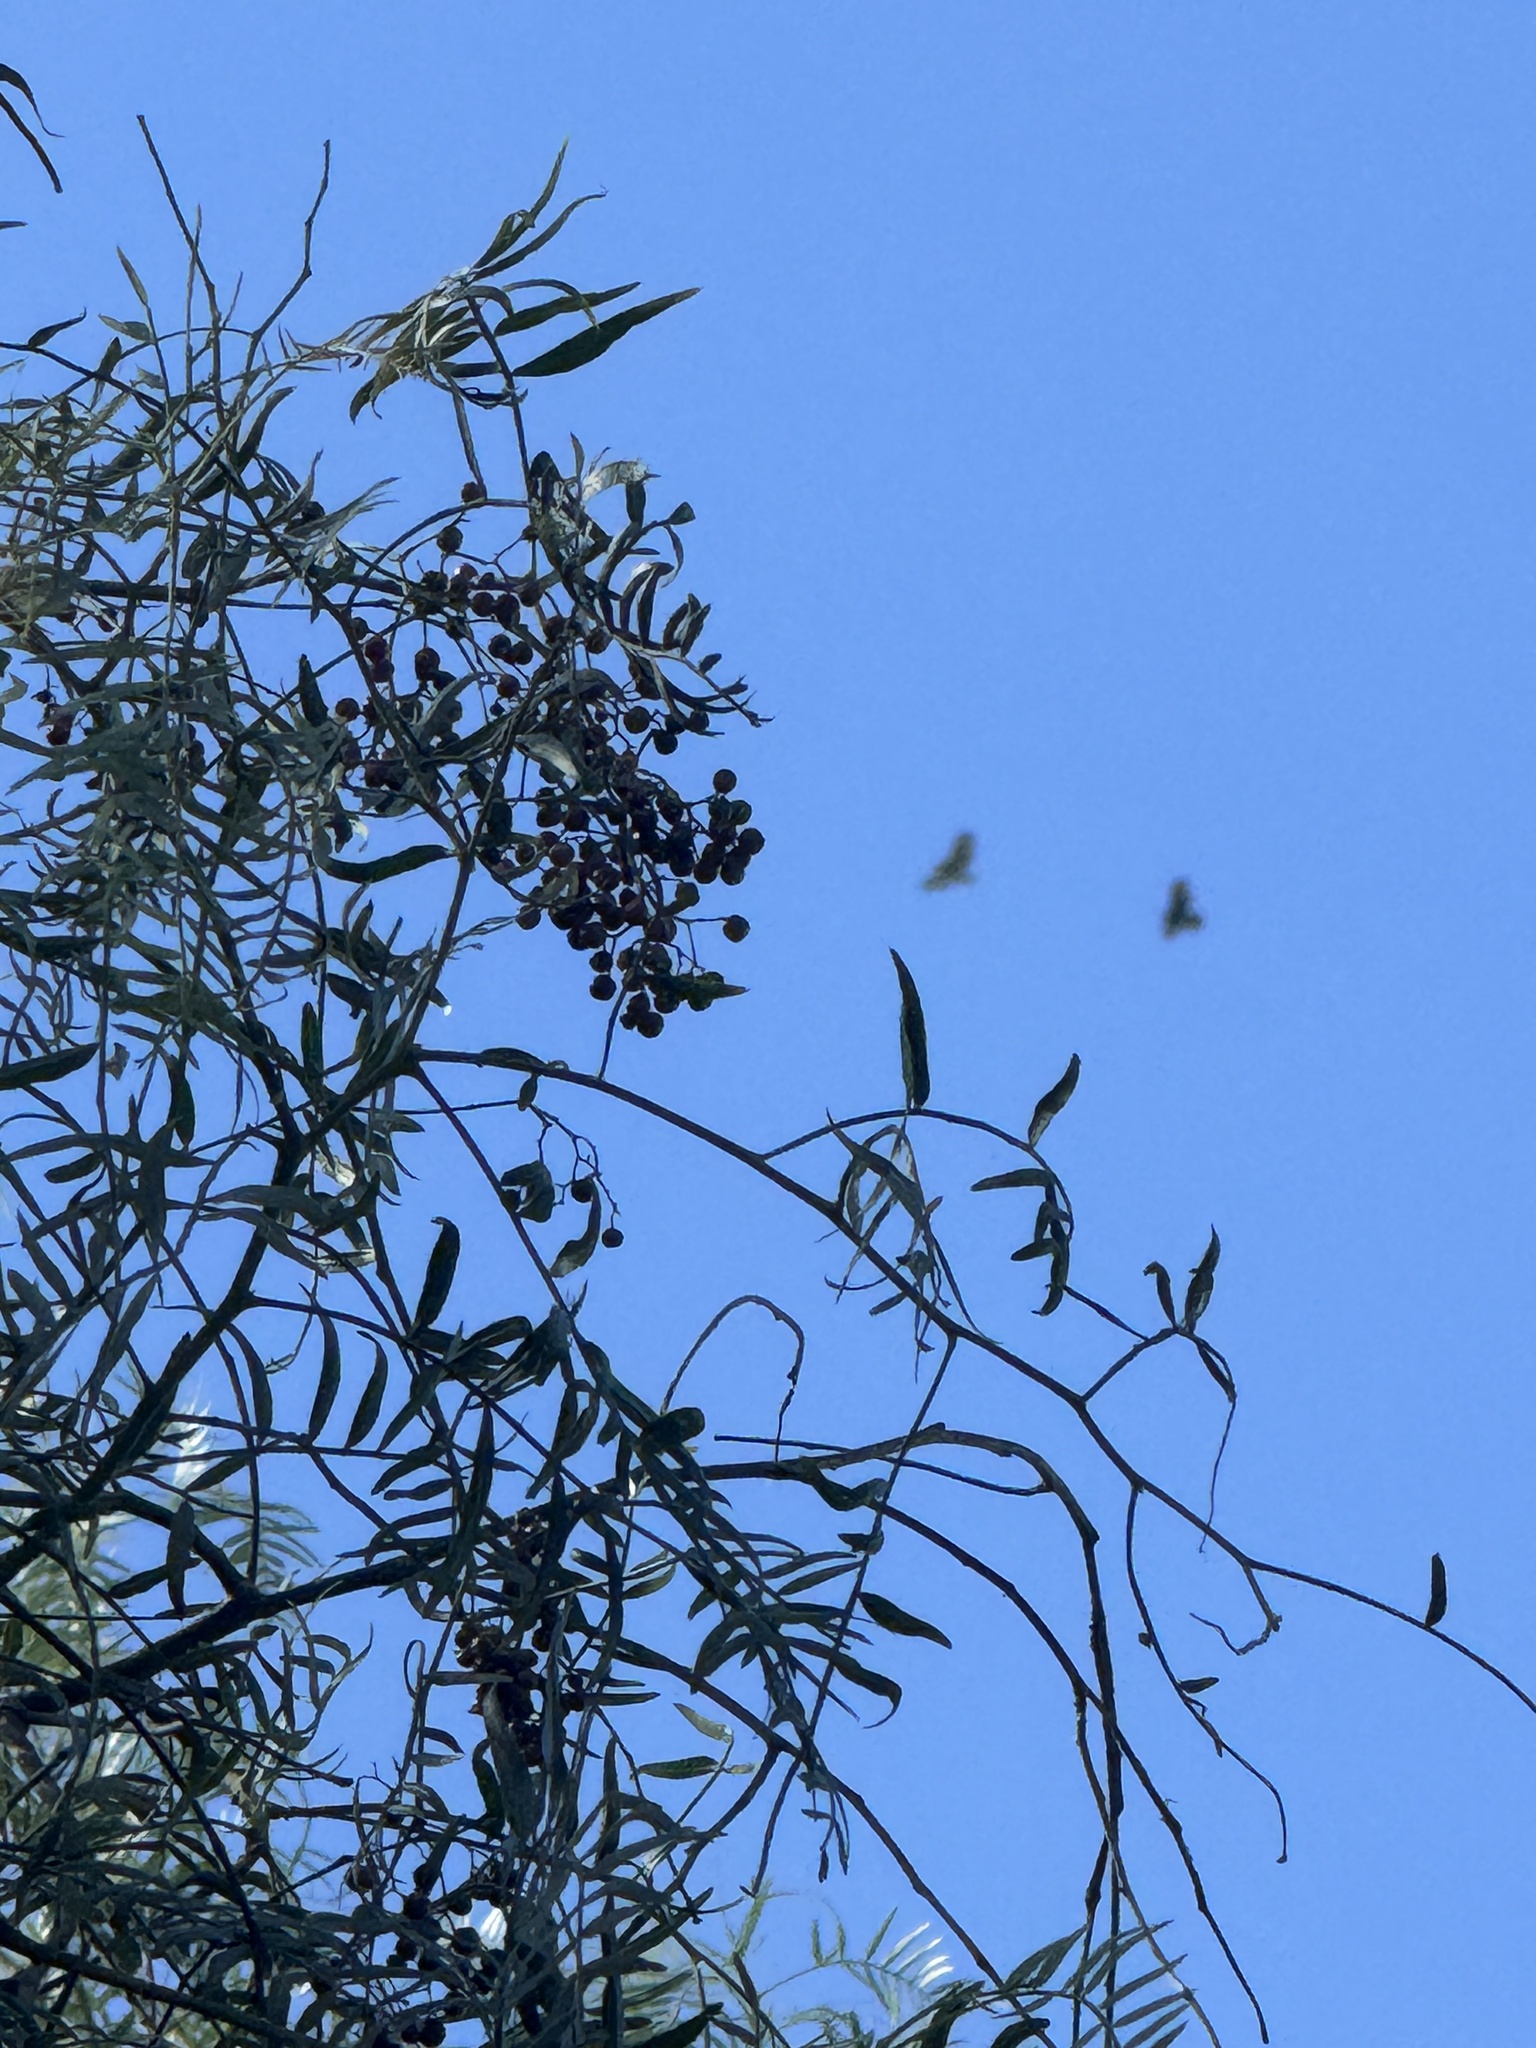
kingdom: Animalia
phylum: Chordata
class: Aves
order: Accipitriformes
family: Accipitridae
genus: Buteo
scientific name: Buteo jamaicensis
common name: Red-tailed hawk
